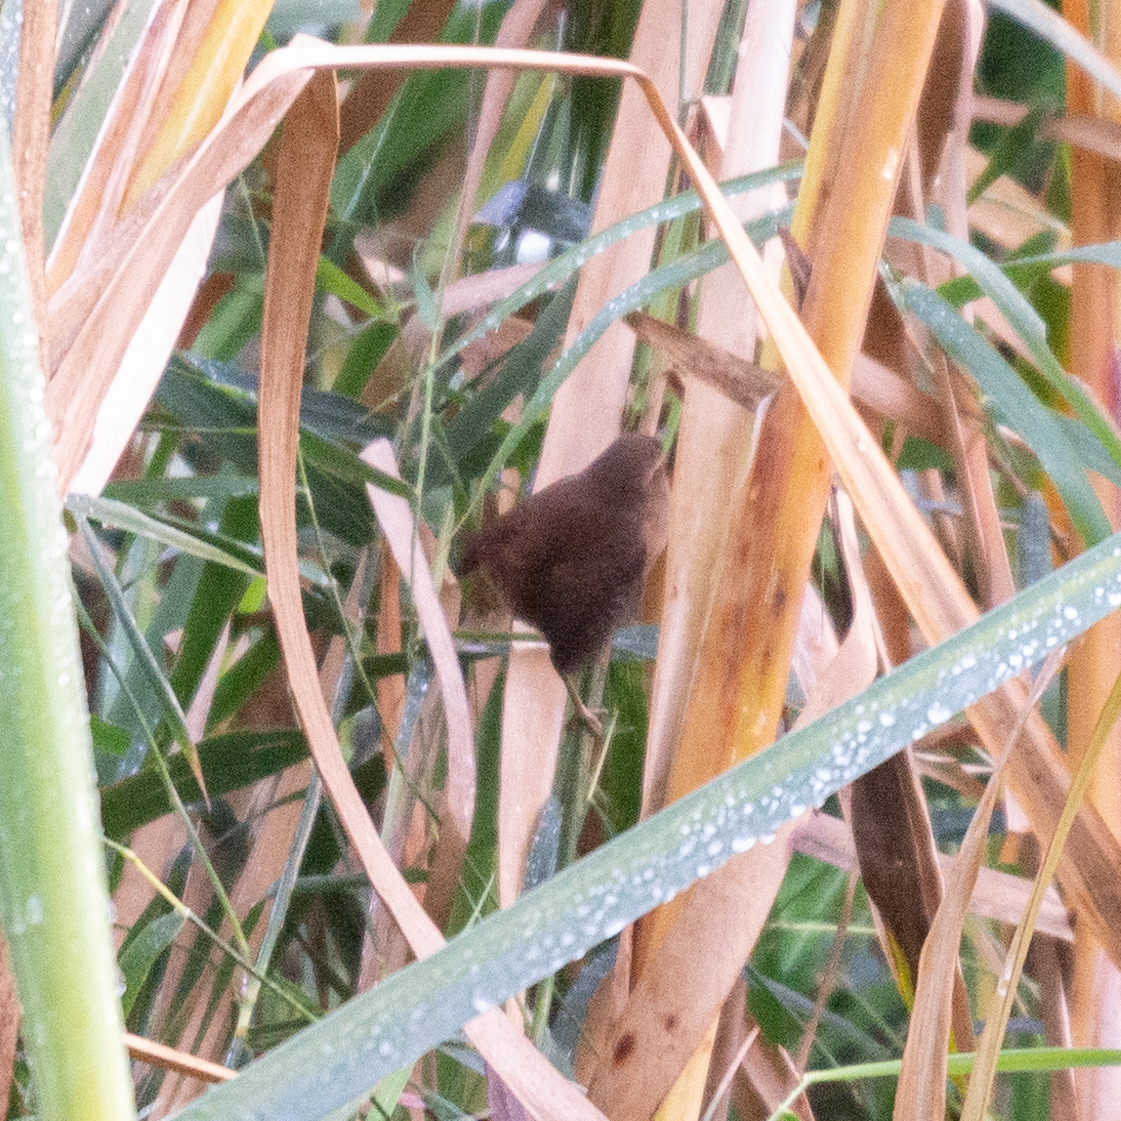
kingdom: Animalia
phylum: Chordata
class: Aves
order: Passeriformes
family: Troglodytidae
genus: Troglodytes
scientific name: Troglodytes troglodytes
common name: Eurasian wren
